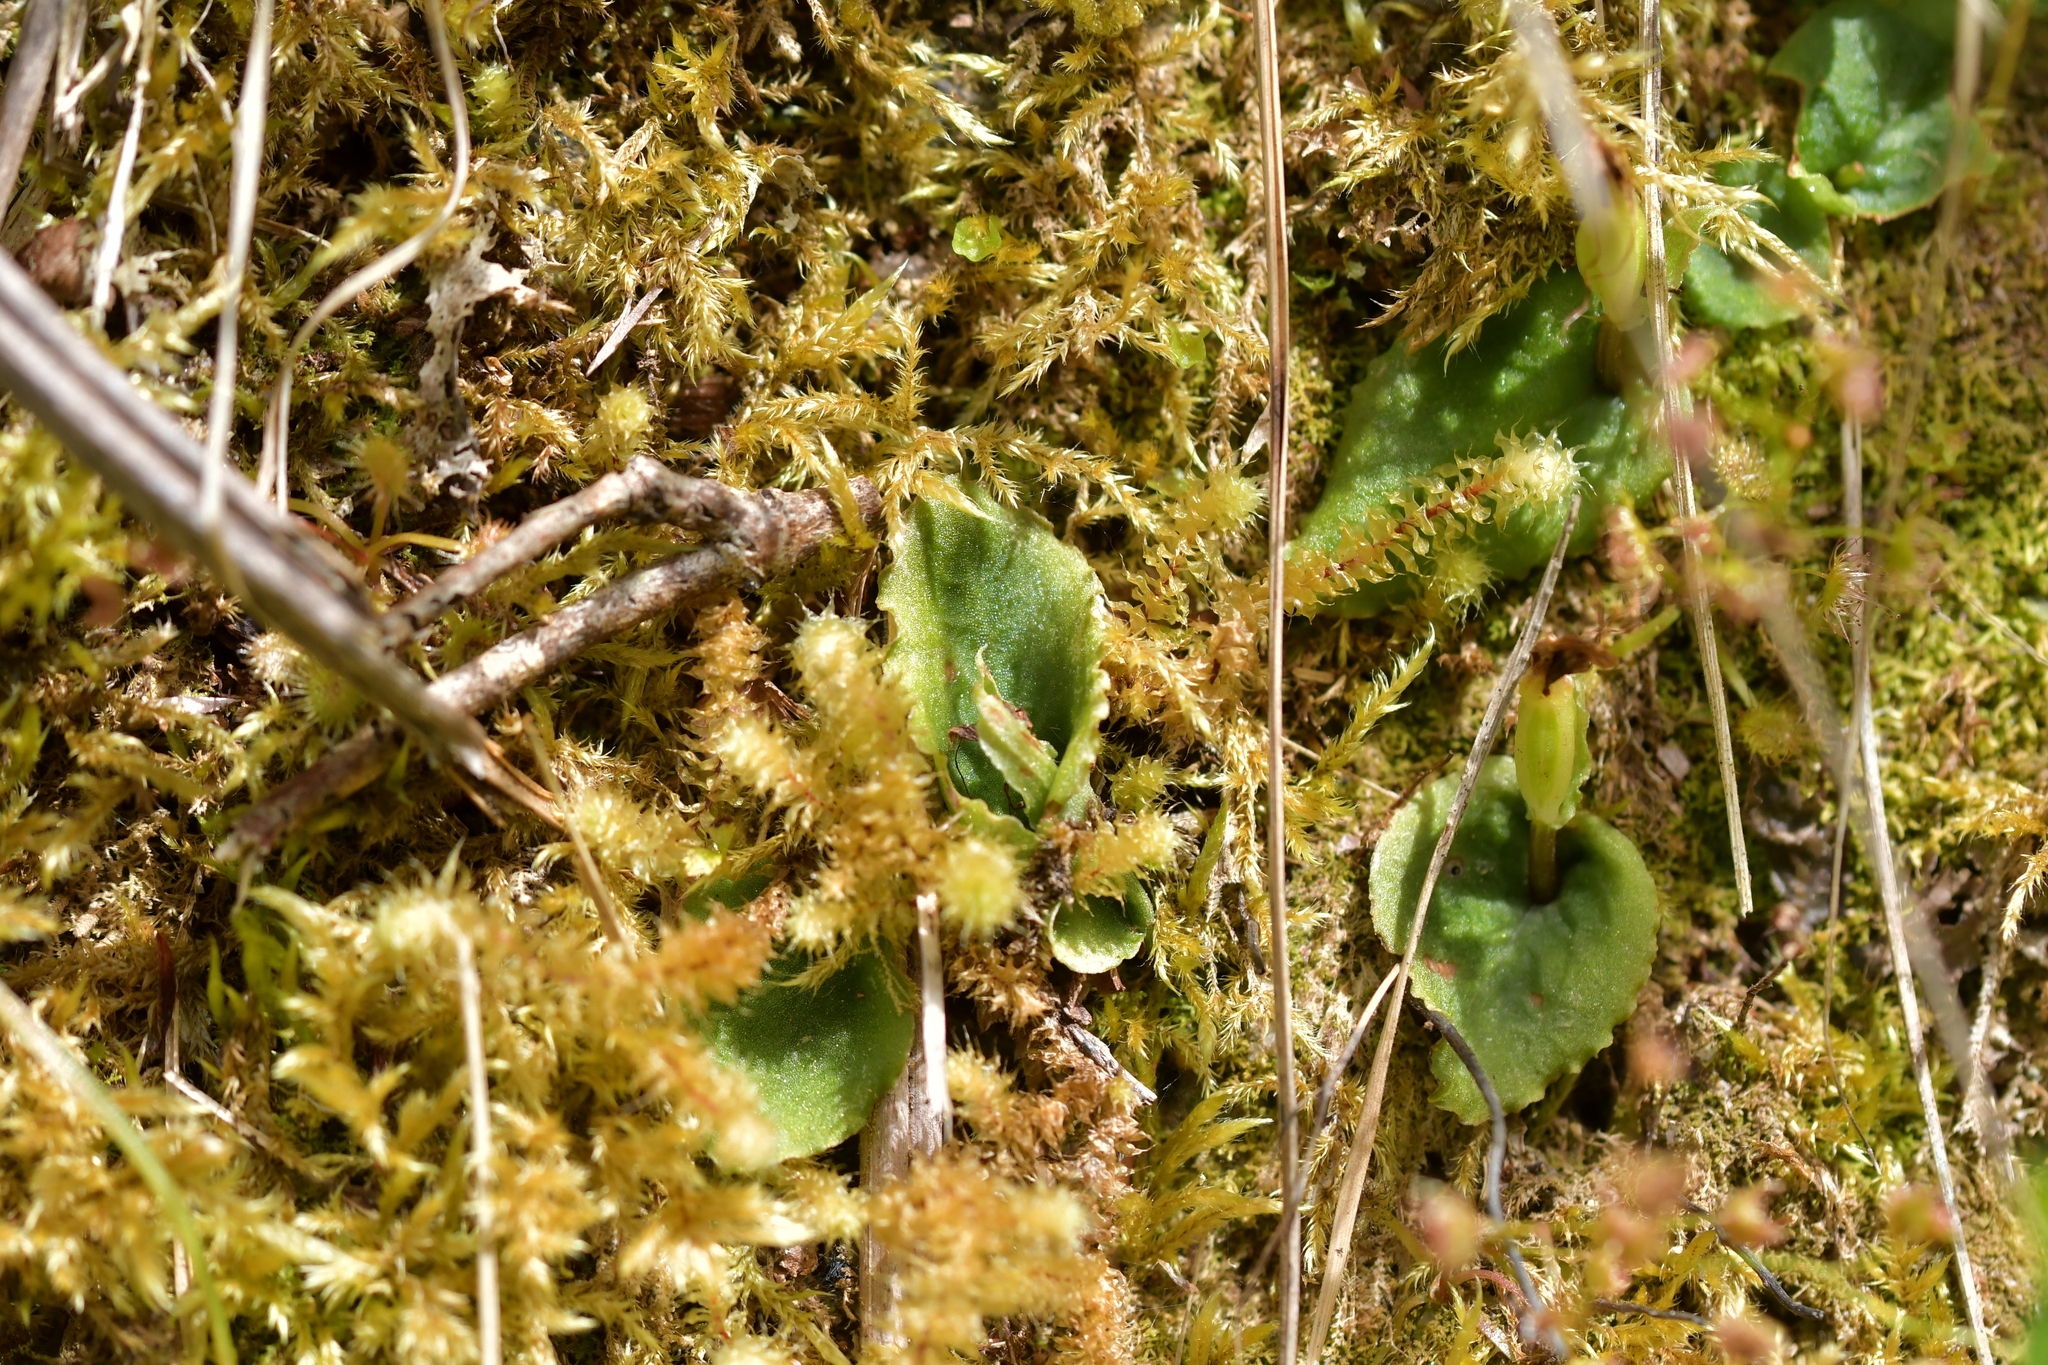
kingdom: Plantae
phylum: Tracheophyta
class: Liliopsida
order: Asparagales
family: Orchidaceae
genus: Corybas
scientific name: Corybas oblongus
